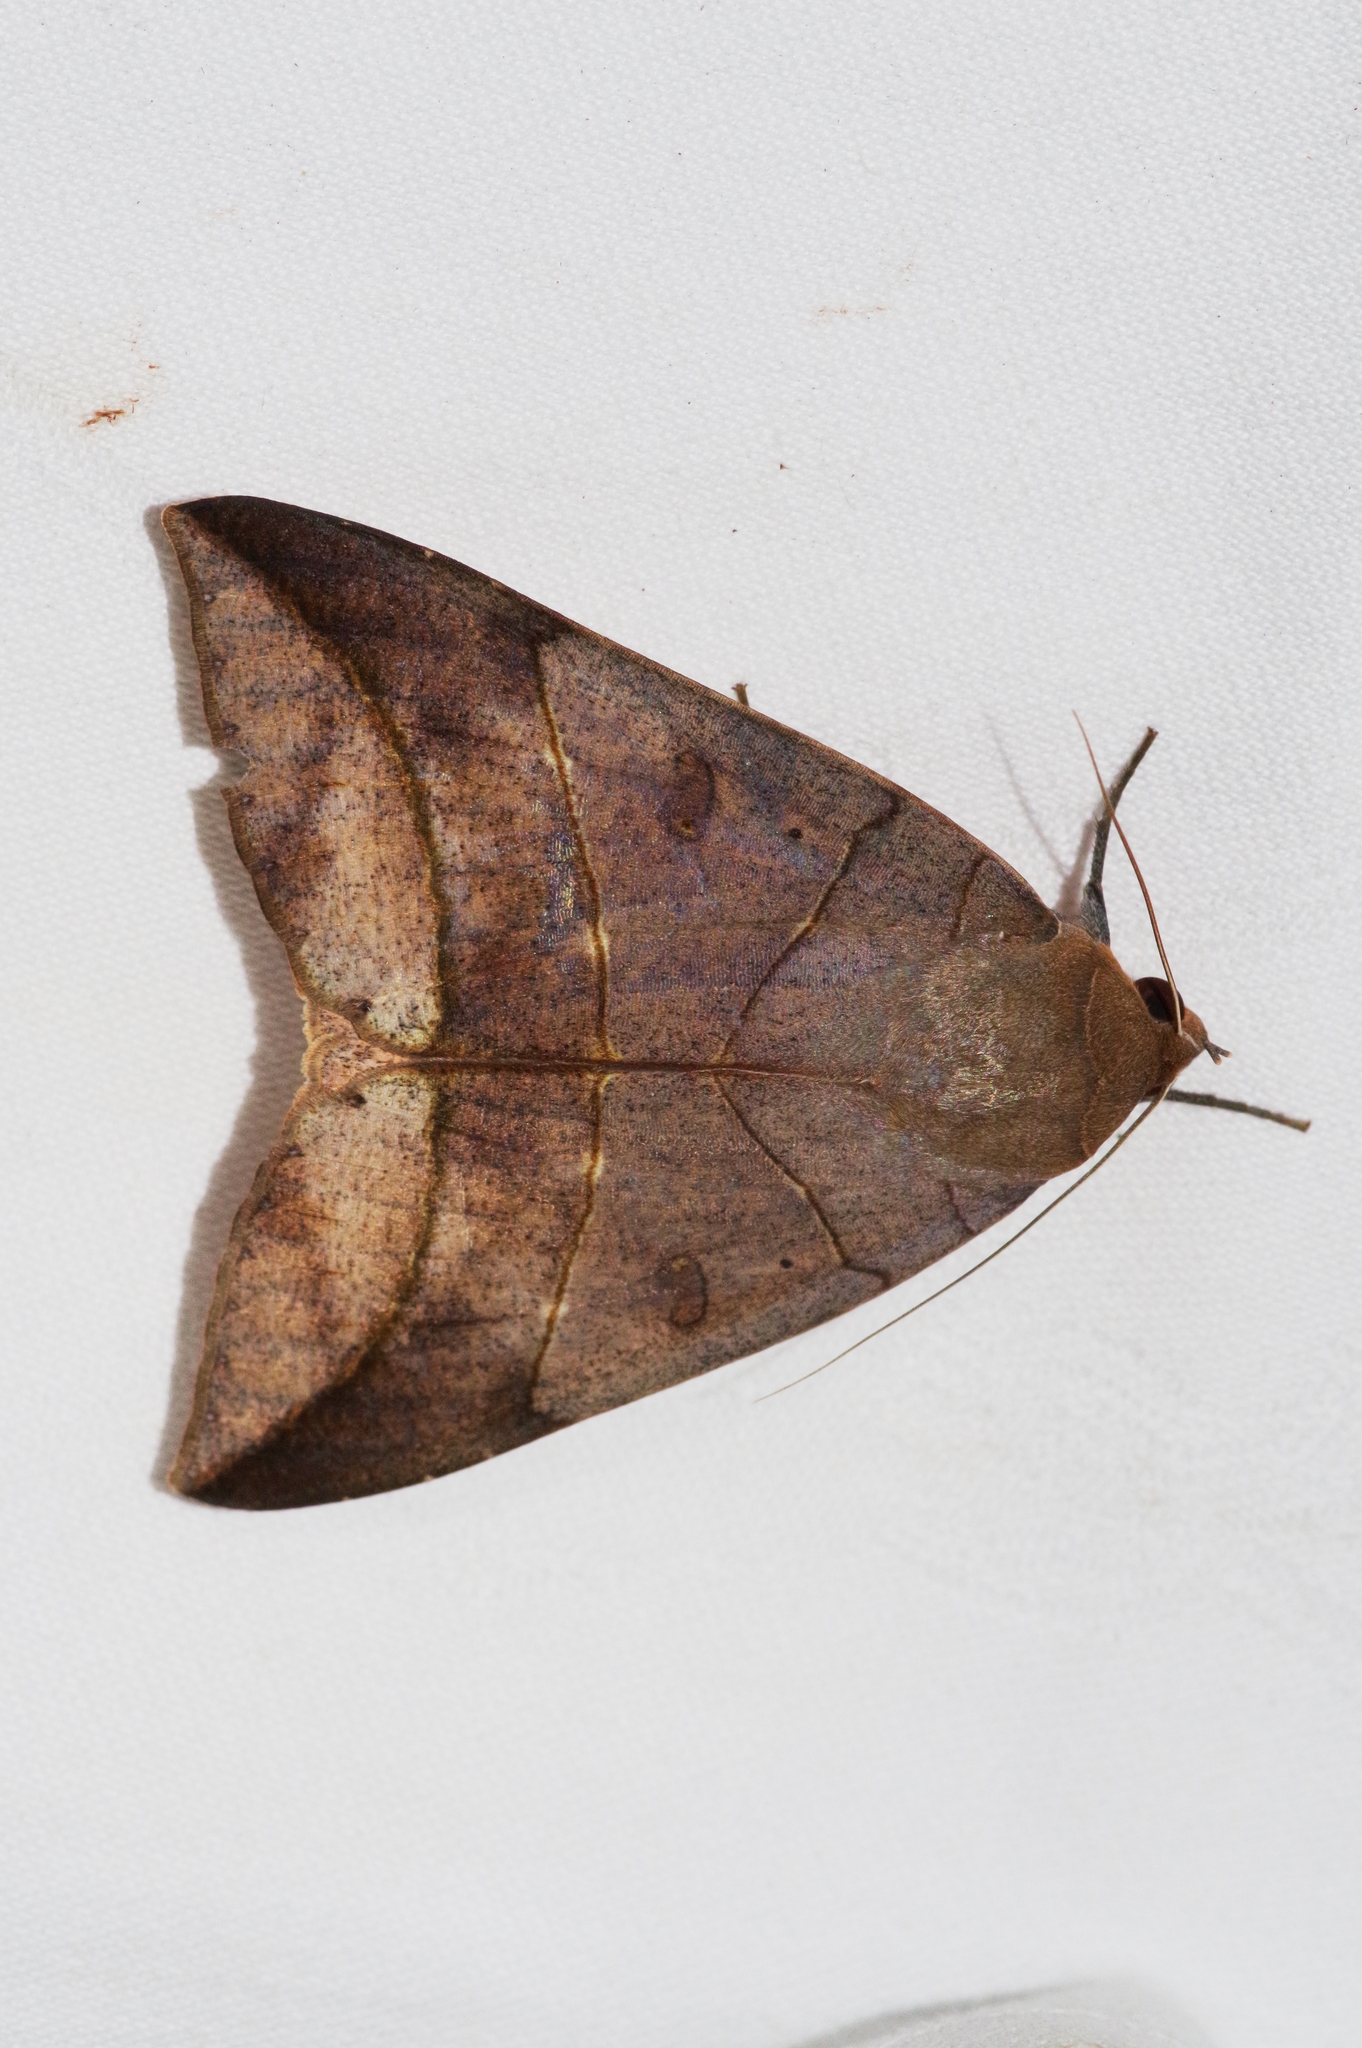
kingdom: Animalia
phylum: Arthropoda
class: Insecta
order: Lepidoptera
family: Erebidae
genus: Thyas
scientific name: Thyas juno
